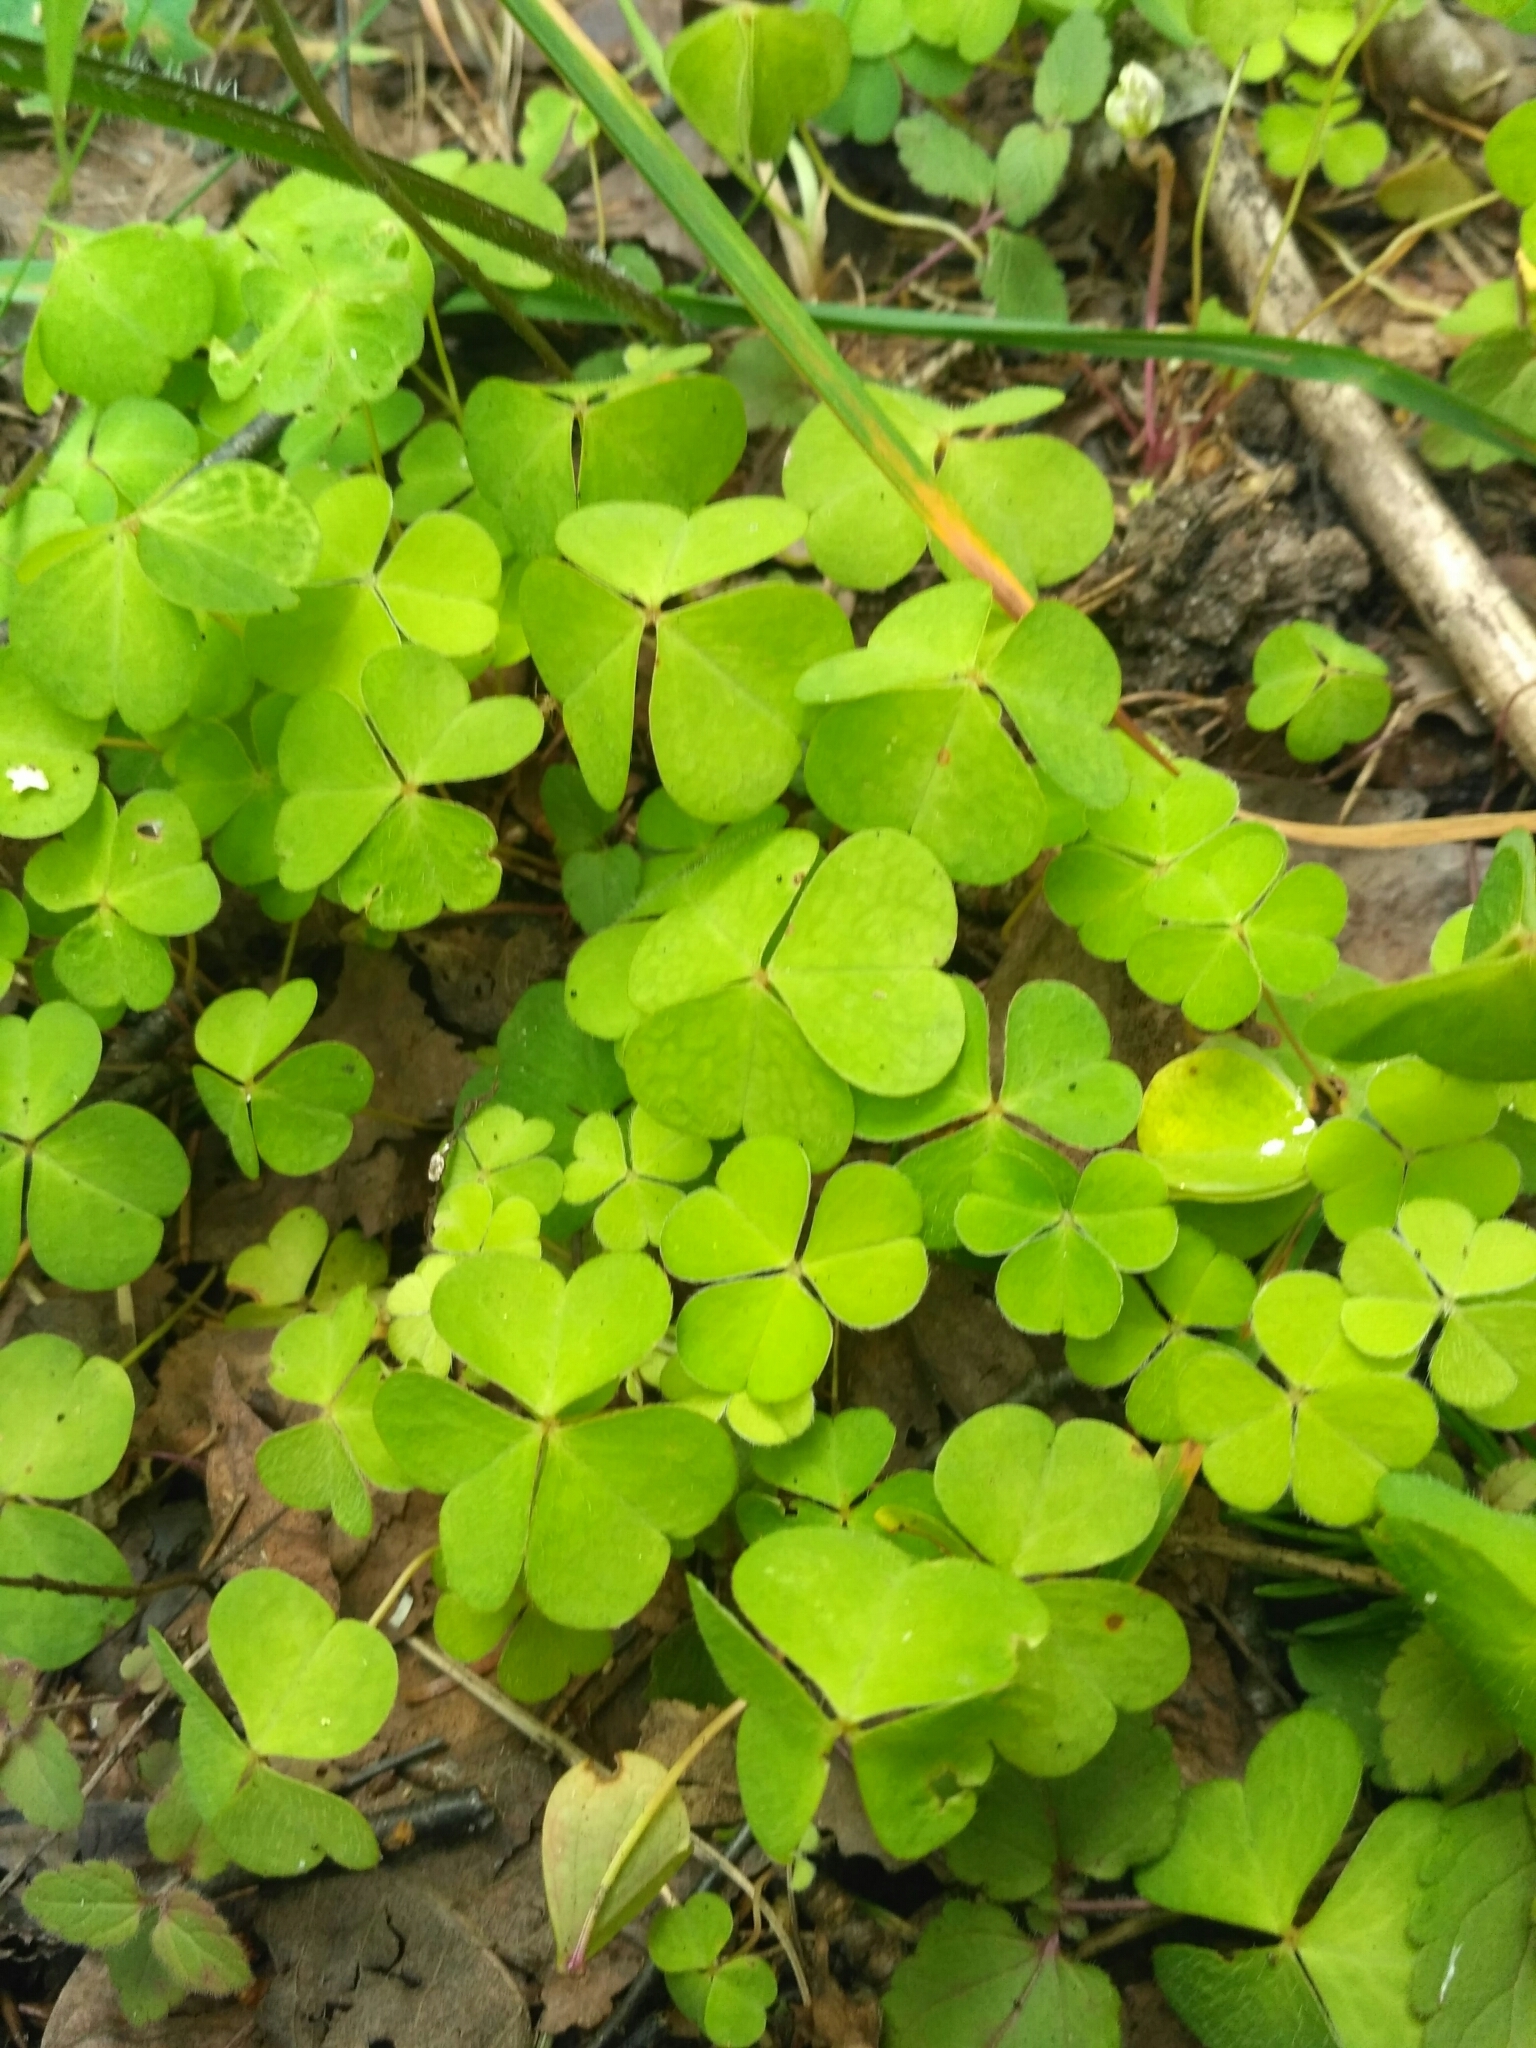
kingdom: Plantae
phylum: Tracheophyta
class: Magnoliopsida
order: Oxalidales
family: Oxalidaceae
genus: Oxalis
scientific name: Oxalis acetosella
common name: Wood-sorrel
